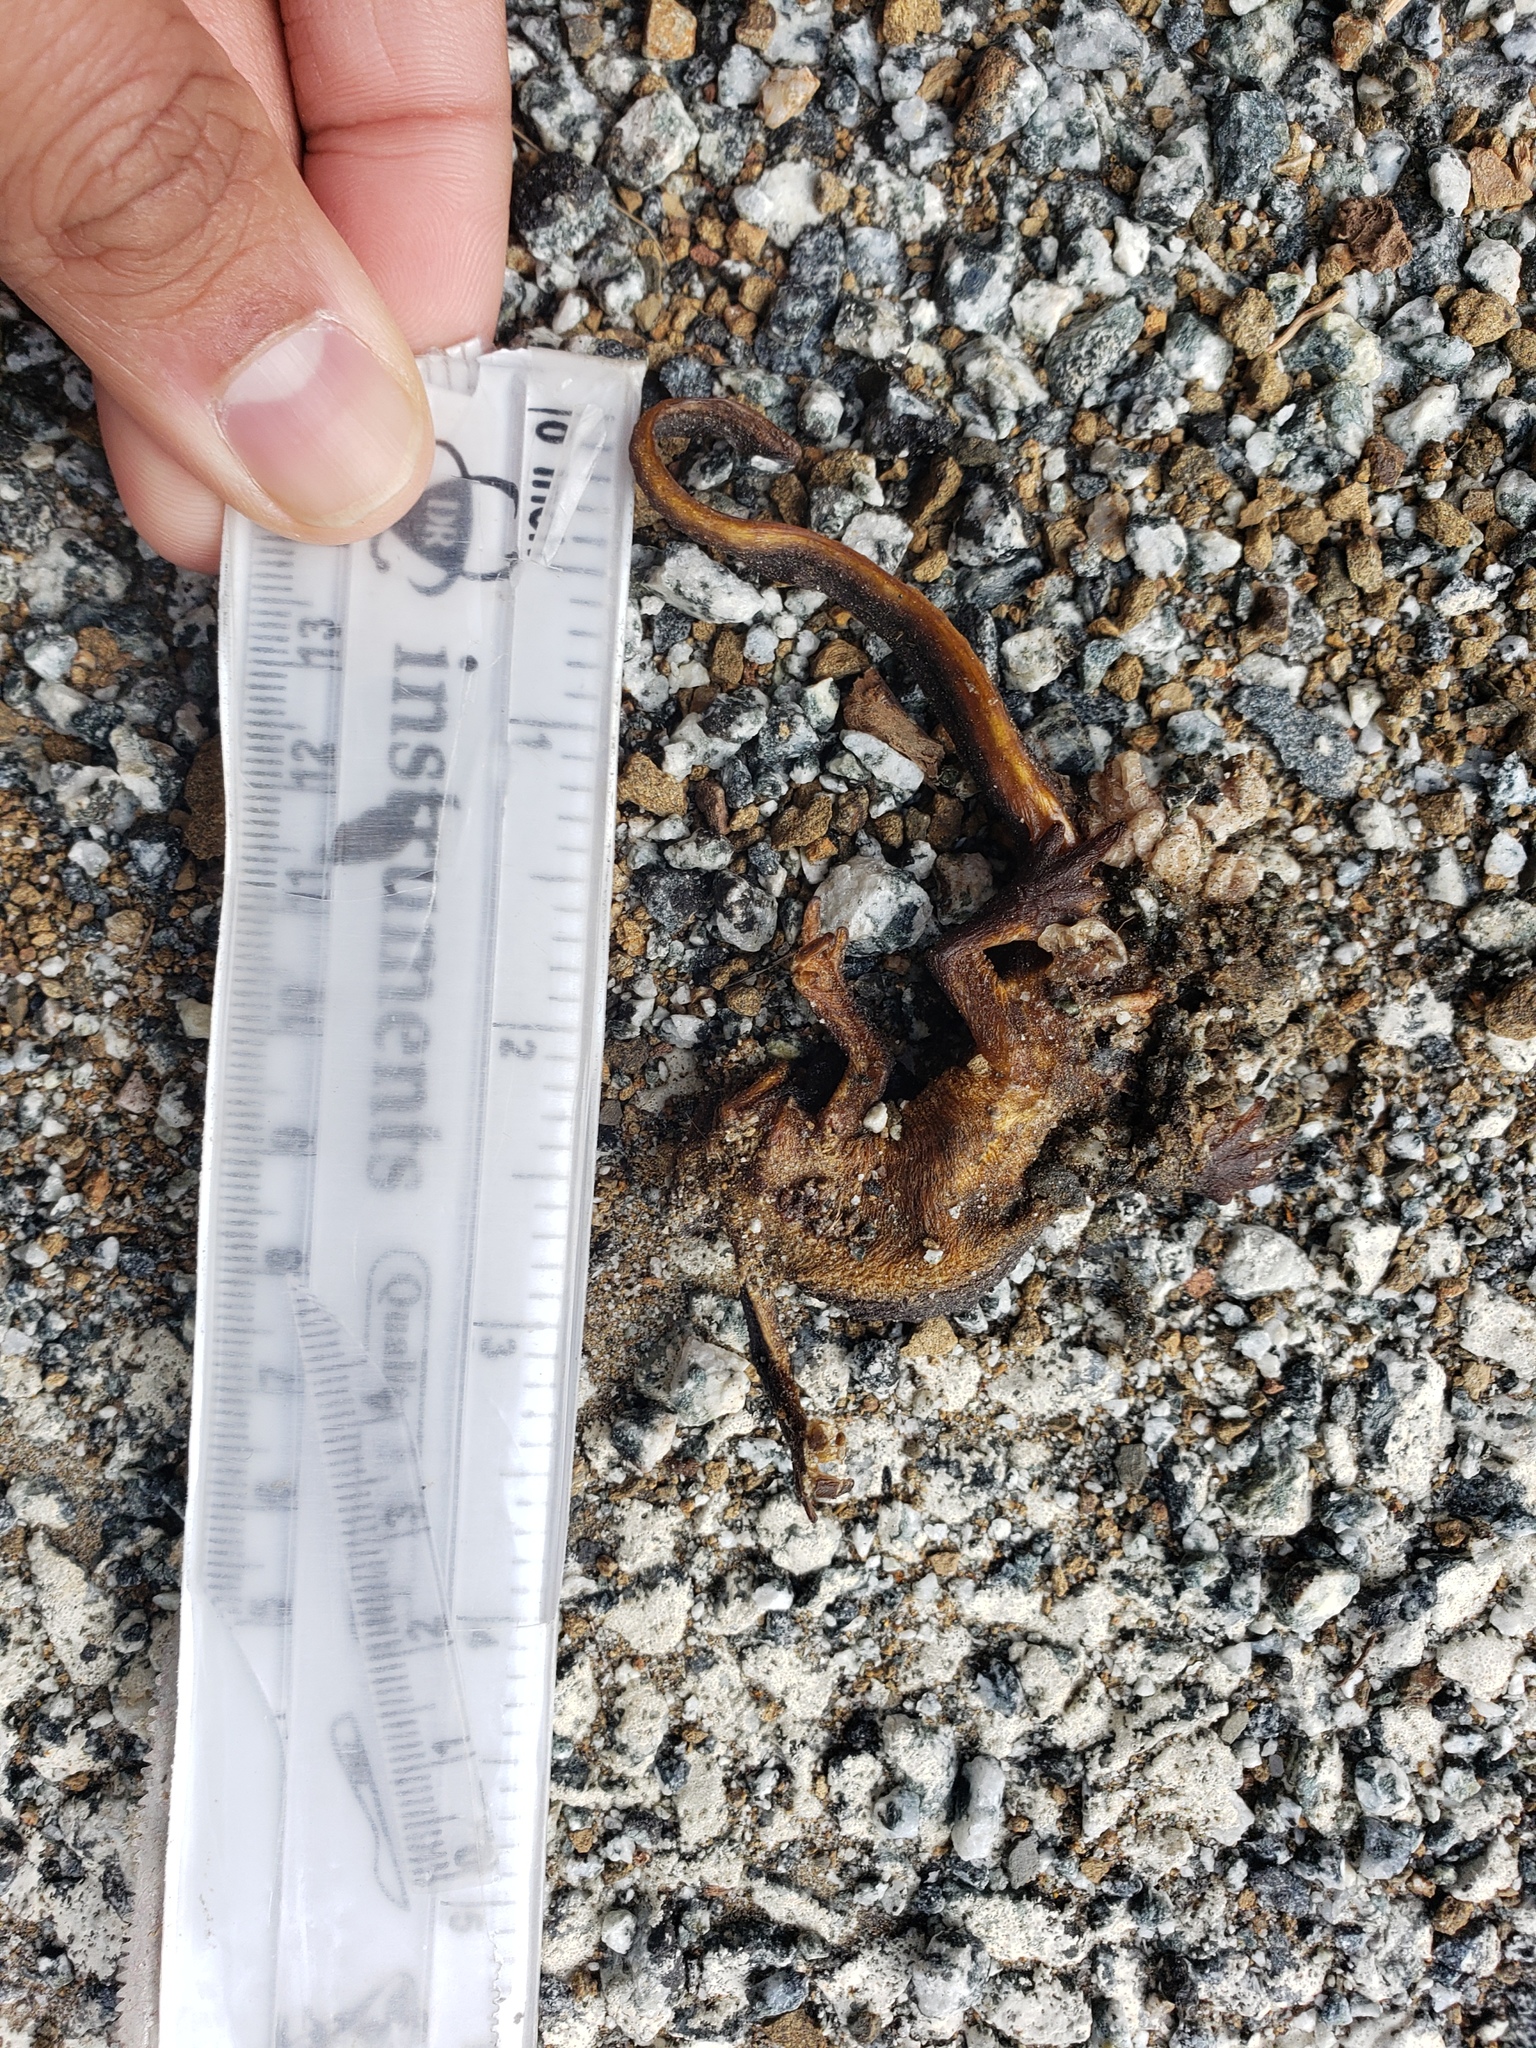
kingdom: Animalia
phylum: Chordata
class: Amphibia
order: Caudata
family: Salamandridae
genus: Taricha
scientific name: Taricha
